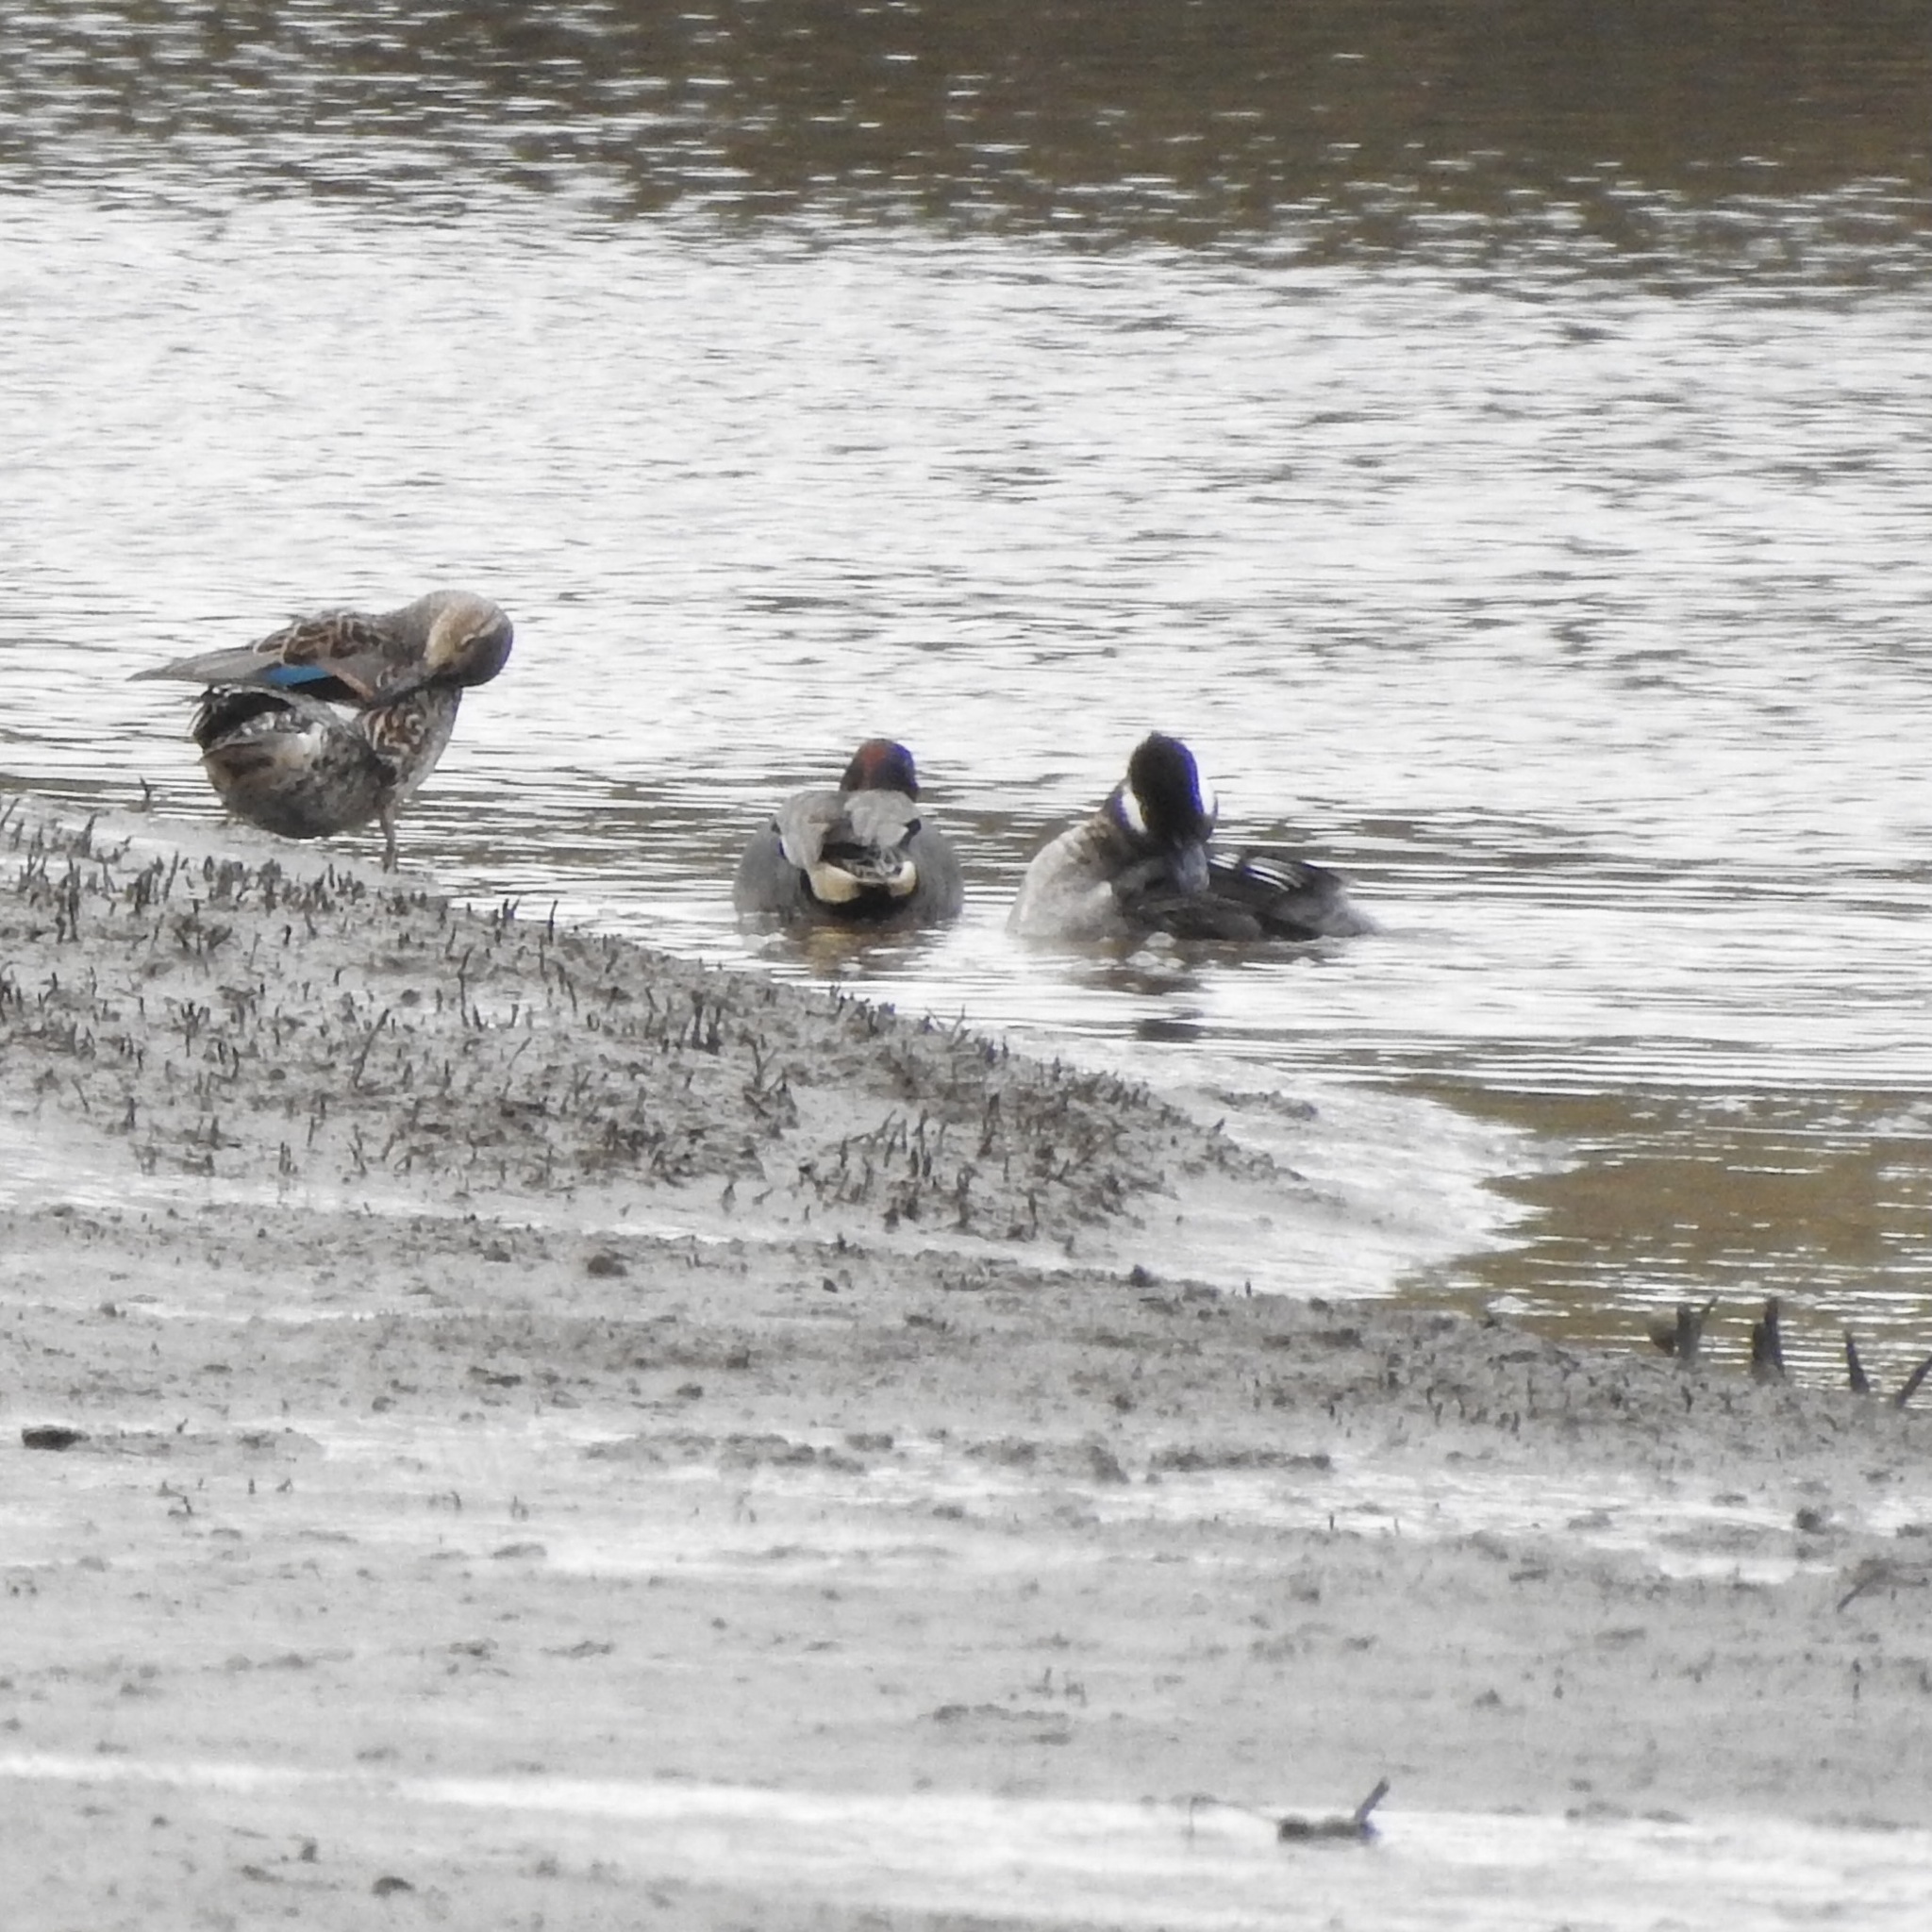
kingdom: Animalia
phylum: Chordata
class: Aves
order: Anseriformes
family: Anatidae
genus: Bucephala
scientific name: Bucephala albeola
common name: Bufflehead
